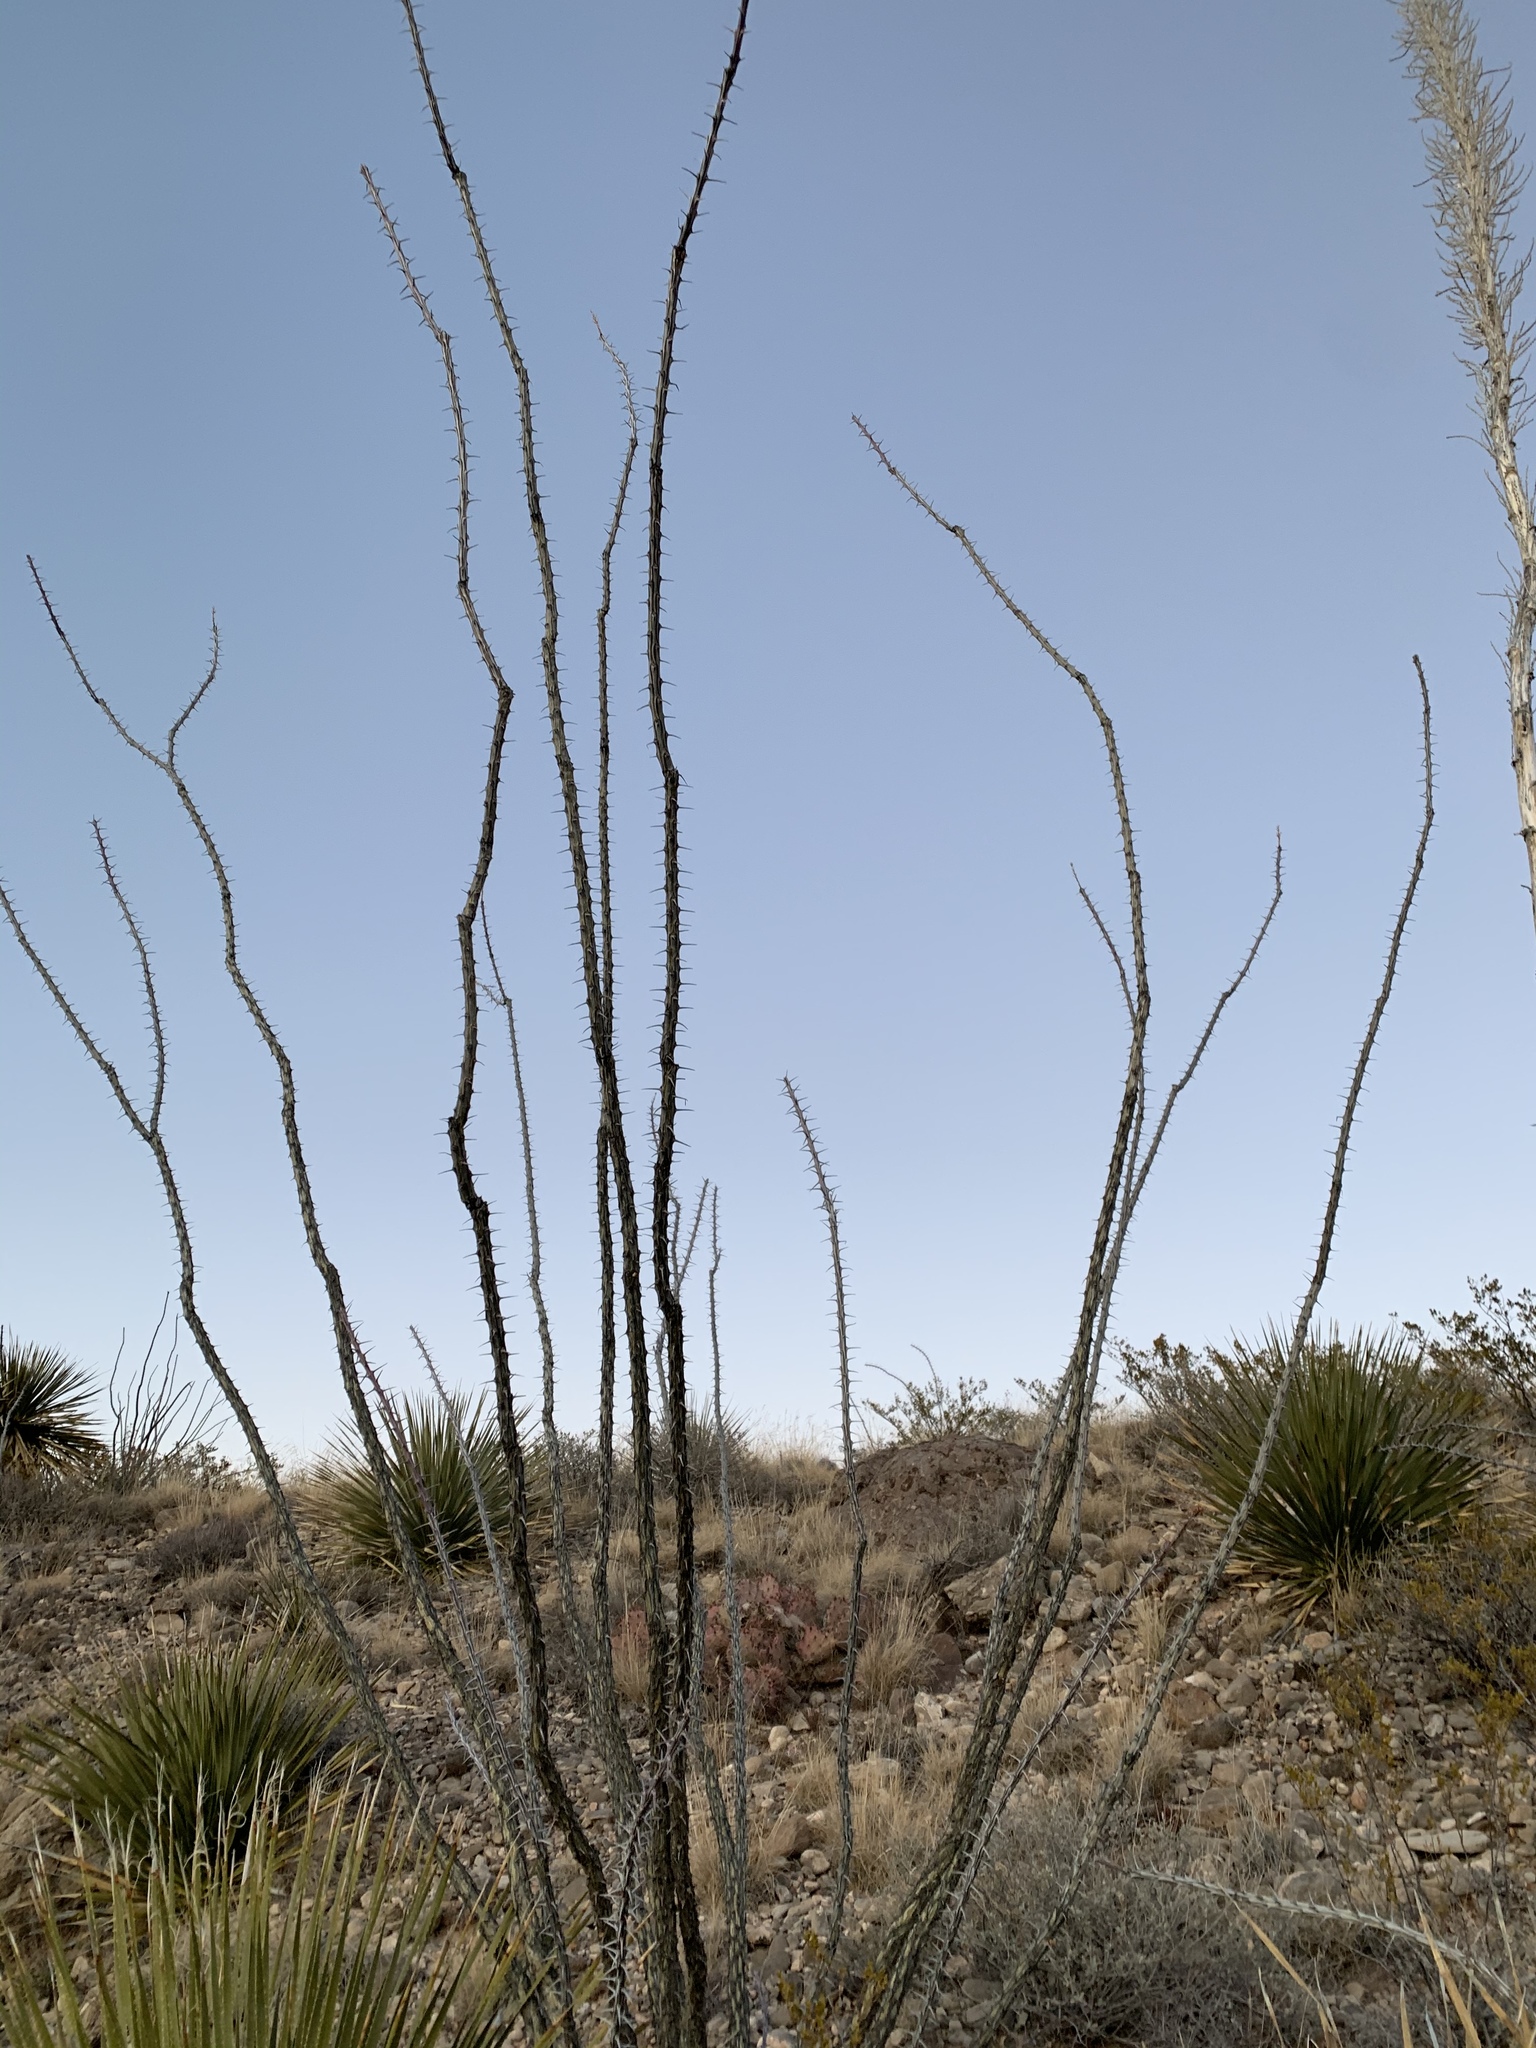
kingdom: Plantae
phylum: Tracheophyta
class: Magnoliopsida
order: Ericales
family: Fouquieriaceae
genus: Fouquieria
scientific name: Fouquieria splendens
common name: Vine-cactus
